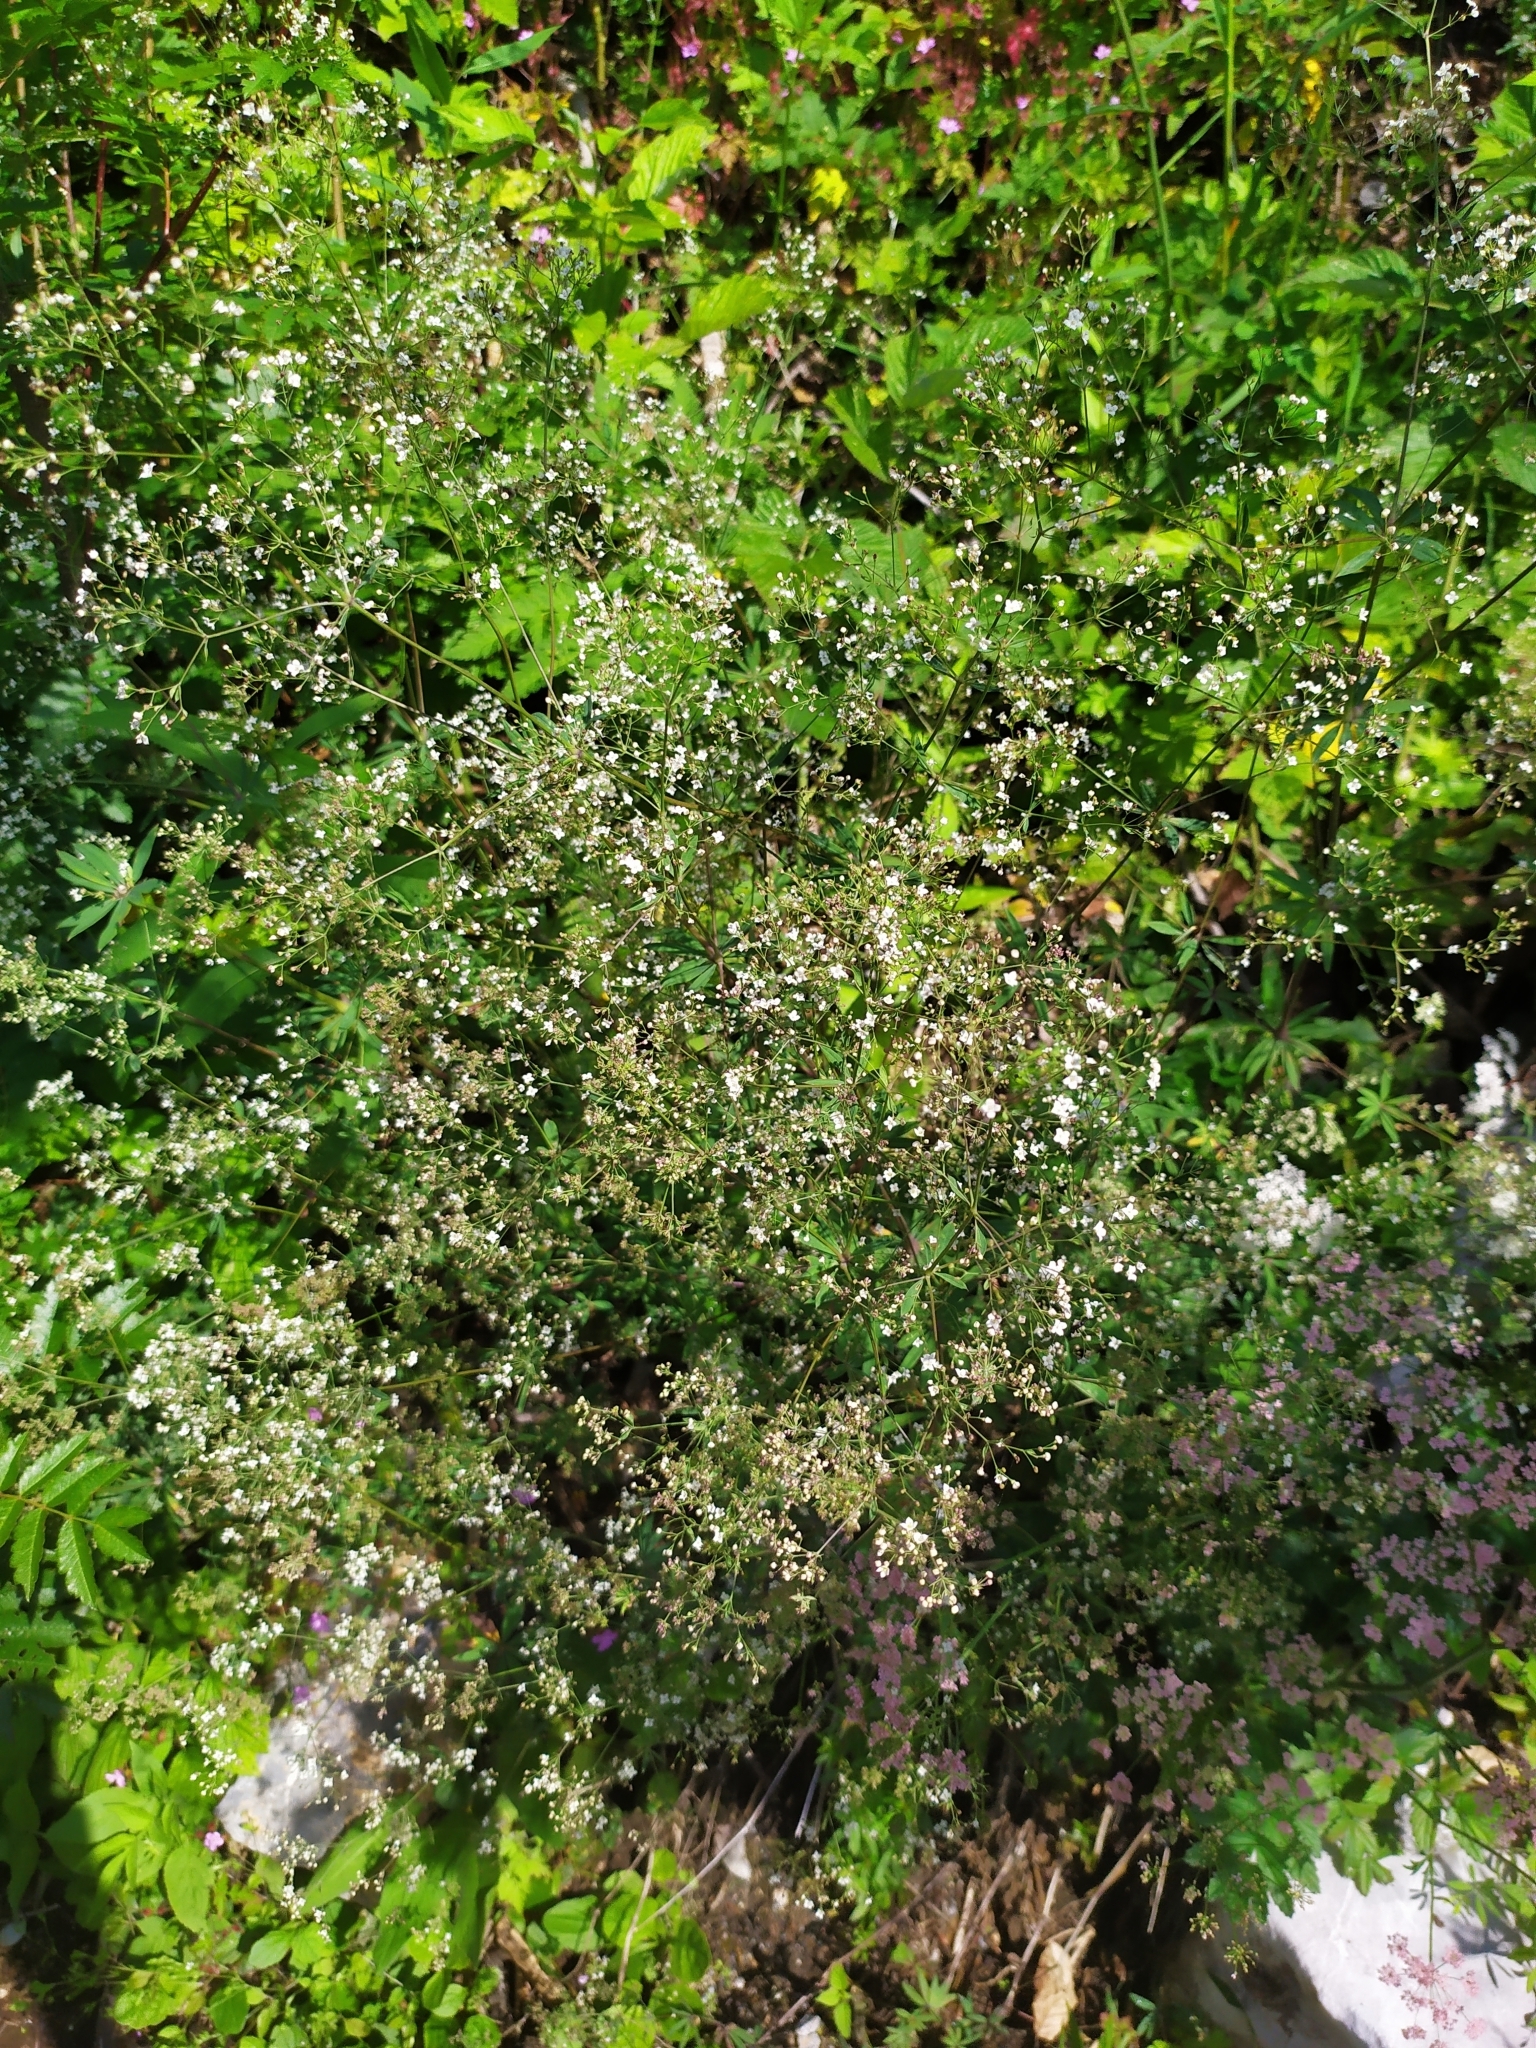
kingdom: Plantae
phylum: Tracheophyta
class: Magnoliopsida
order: Gentianales
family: Rubiaceae
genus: Galium
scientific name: Galium sylvaticum
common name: Wood bedstraw
